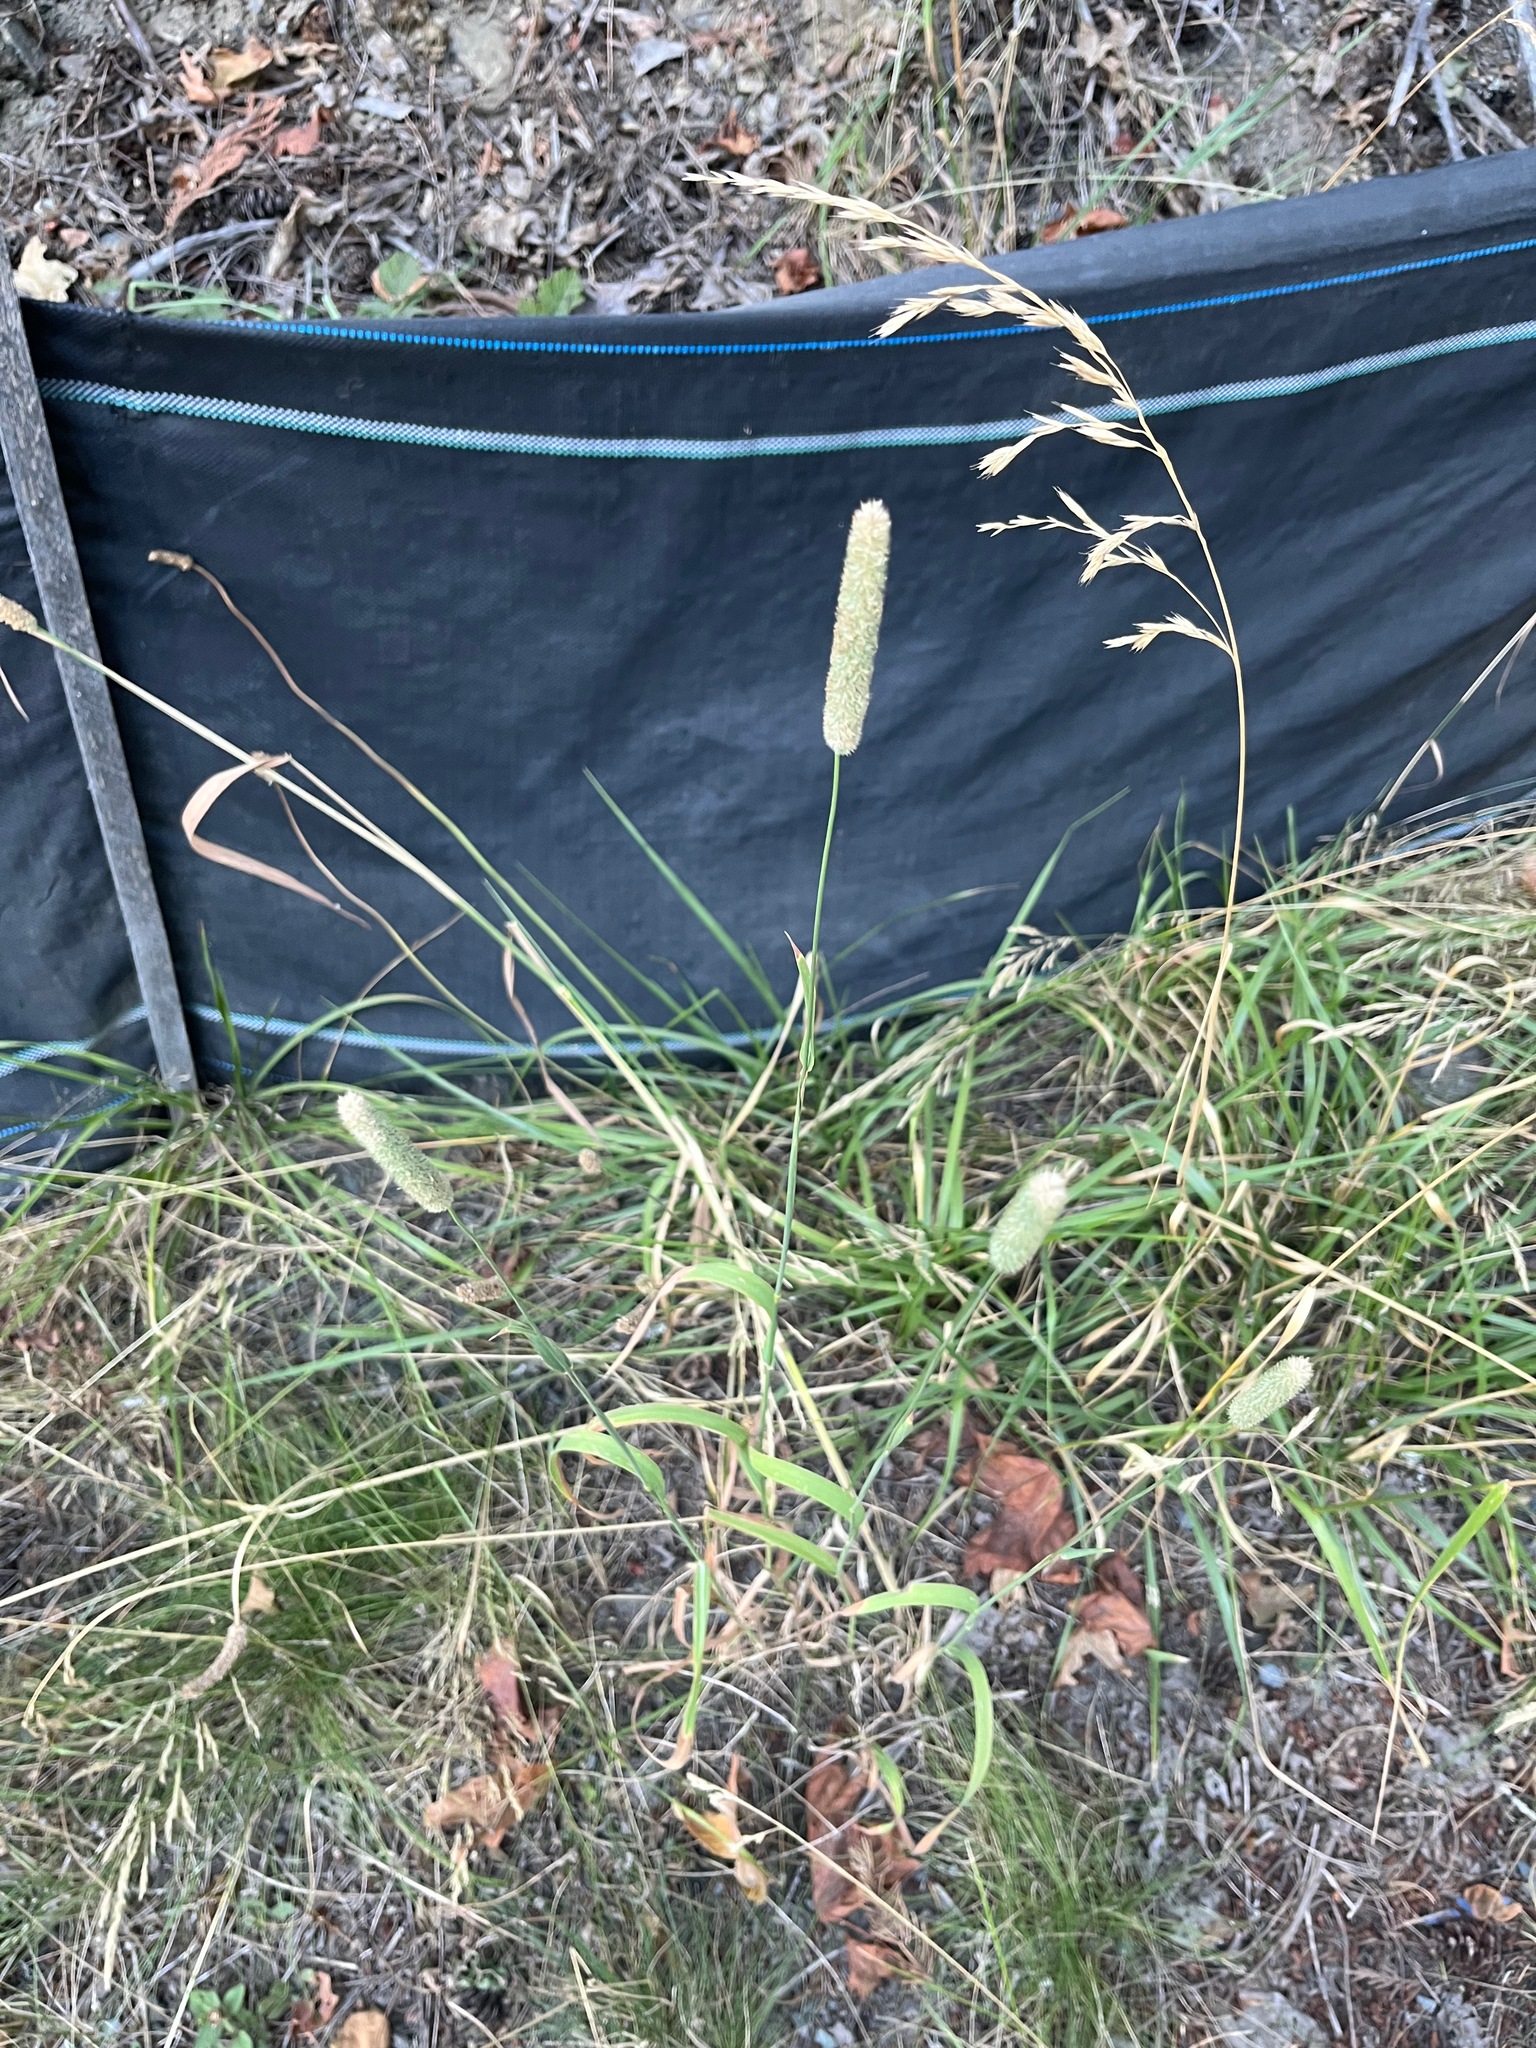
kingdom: Plantae
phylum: Tracheophyta
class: Liliopsida
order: Poales
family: Poaceae
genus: Phleum
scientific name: Phleum pratense
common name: Timothy grass
